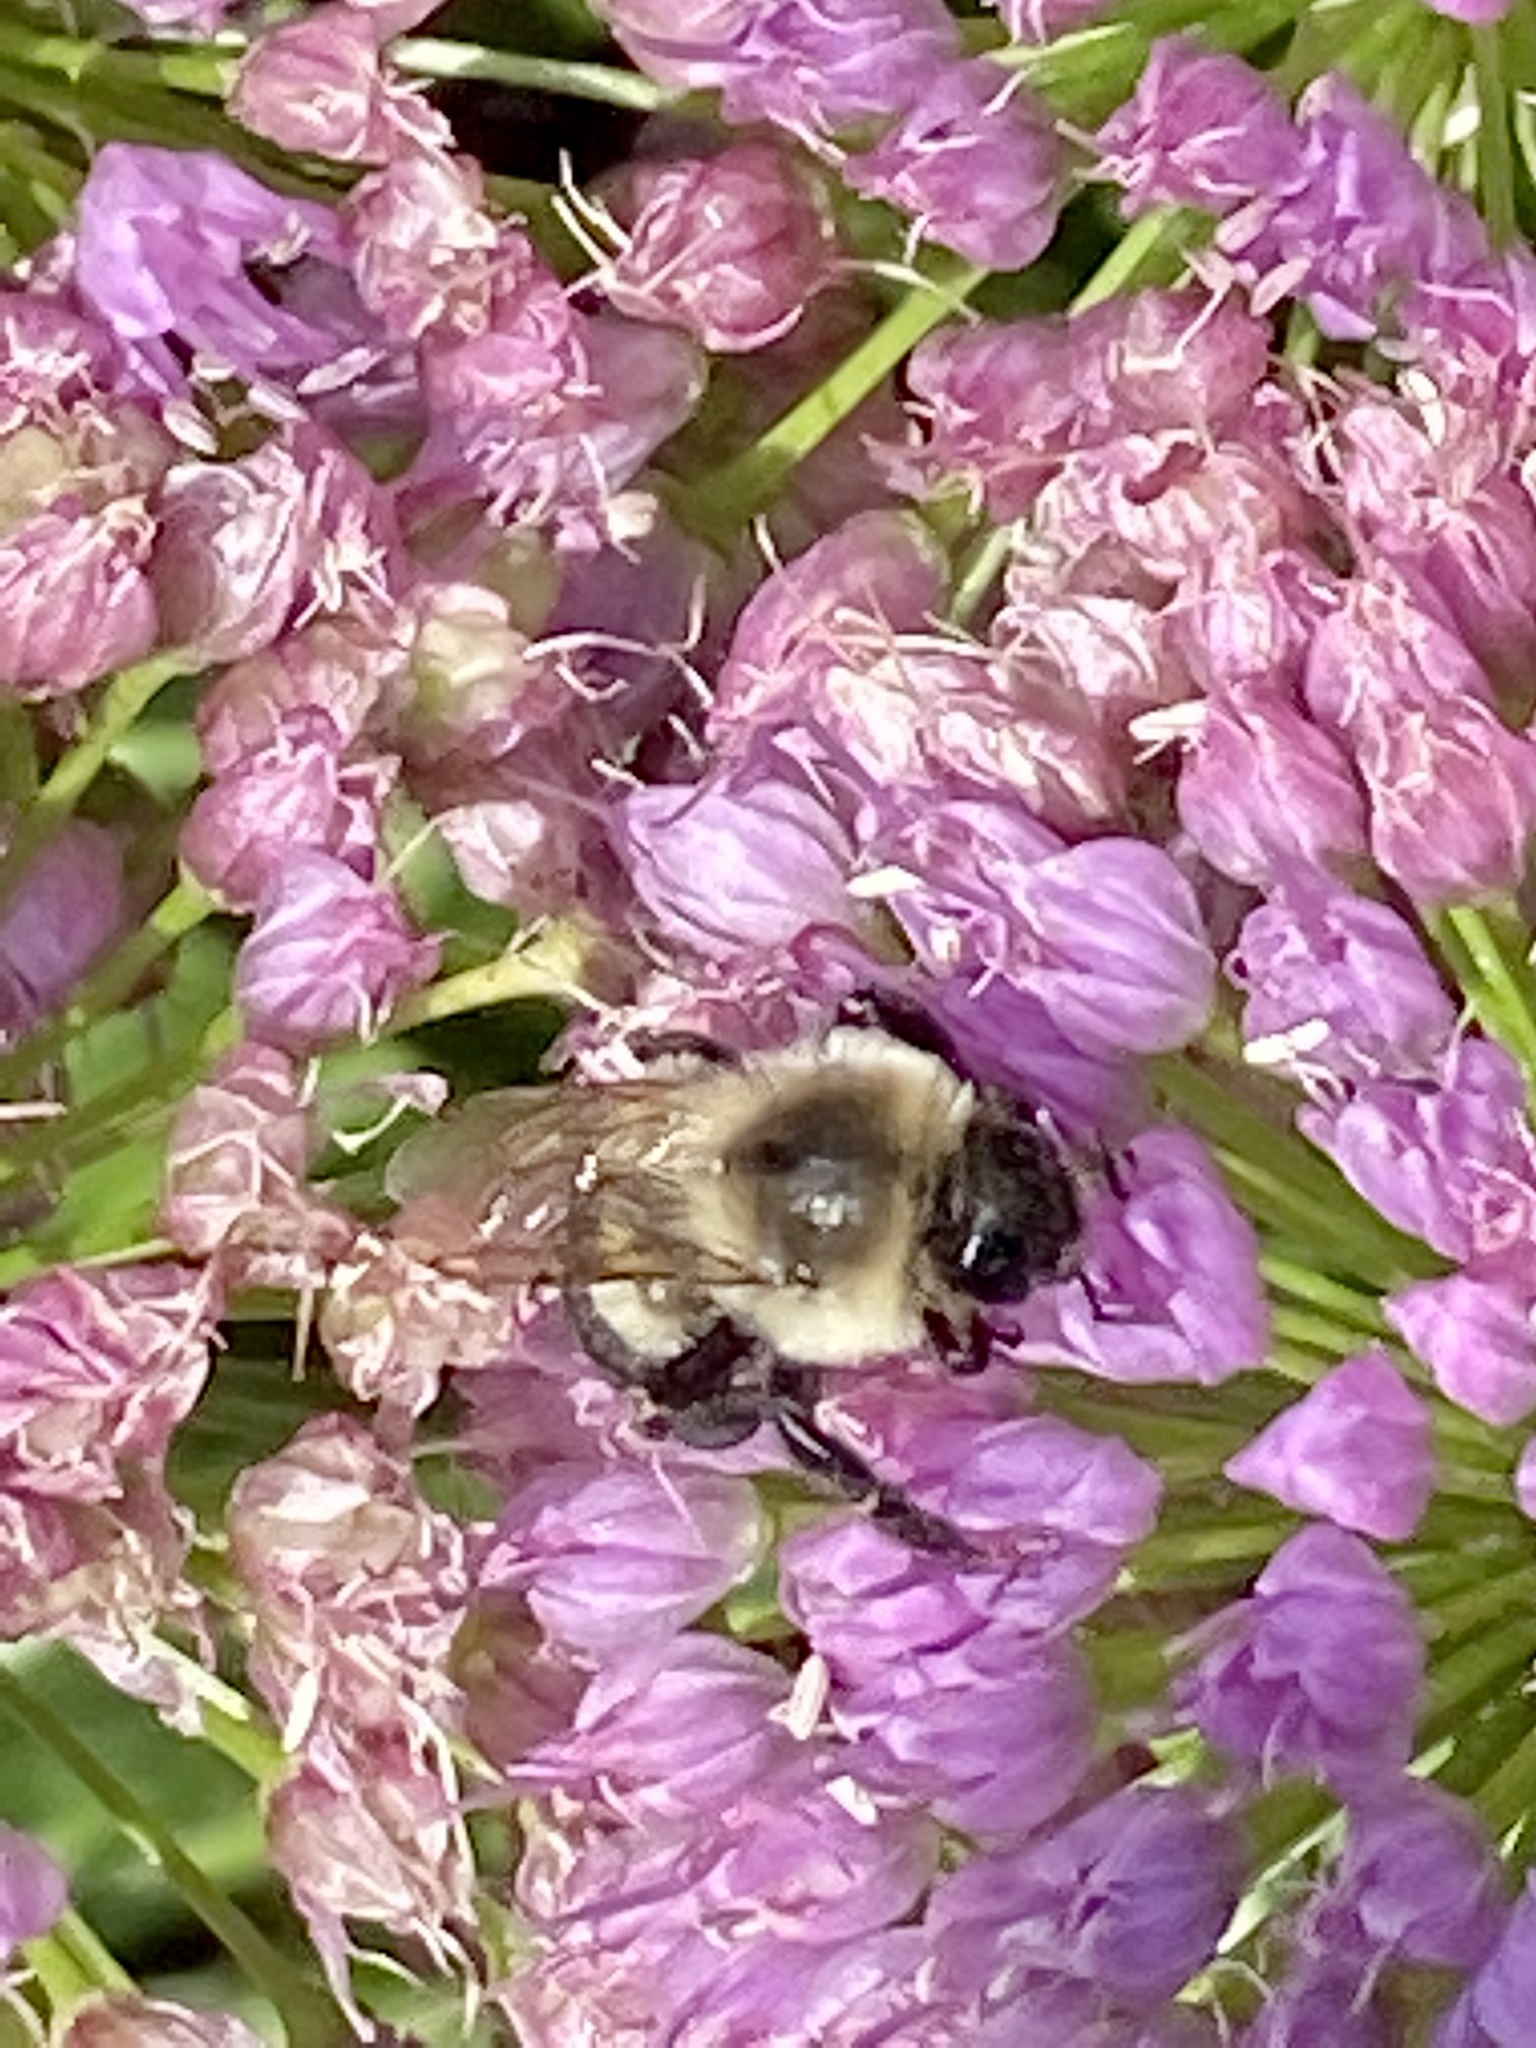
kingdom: Animalia
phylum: Arthropoda
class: Insecta
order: Hymenoptera
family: Apidae
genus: Bombus
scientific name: Bombus impatiens
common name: Common eastern bumble bee
